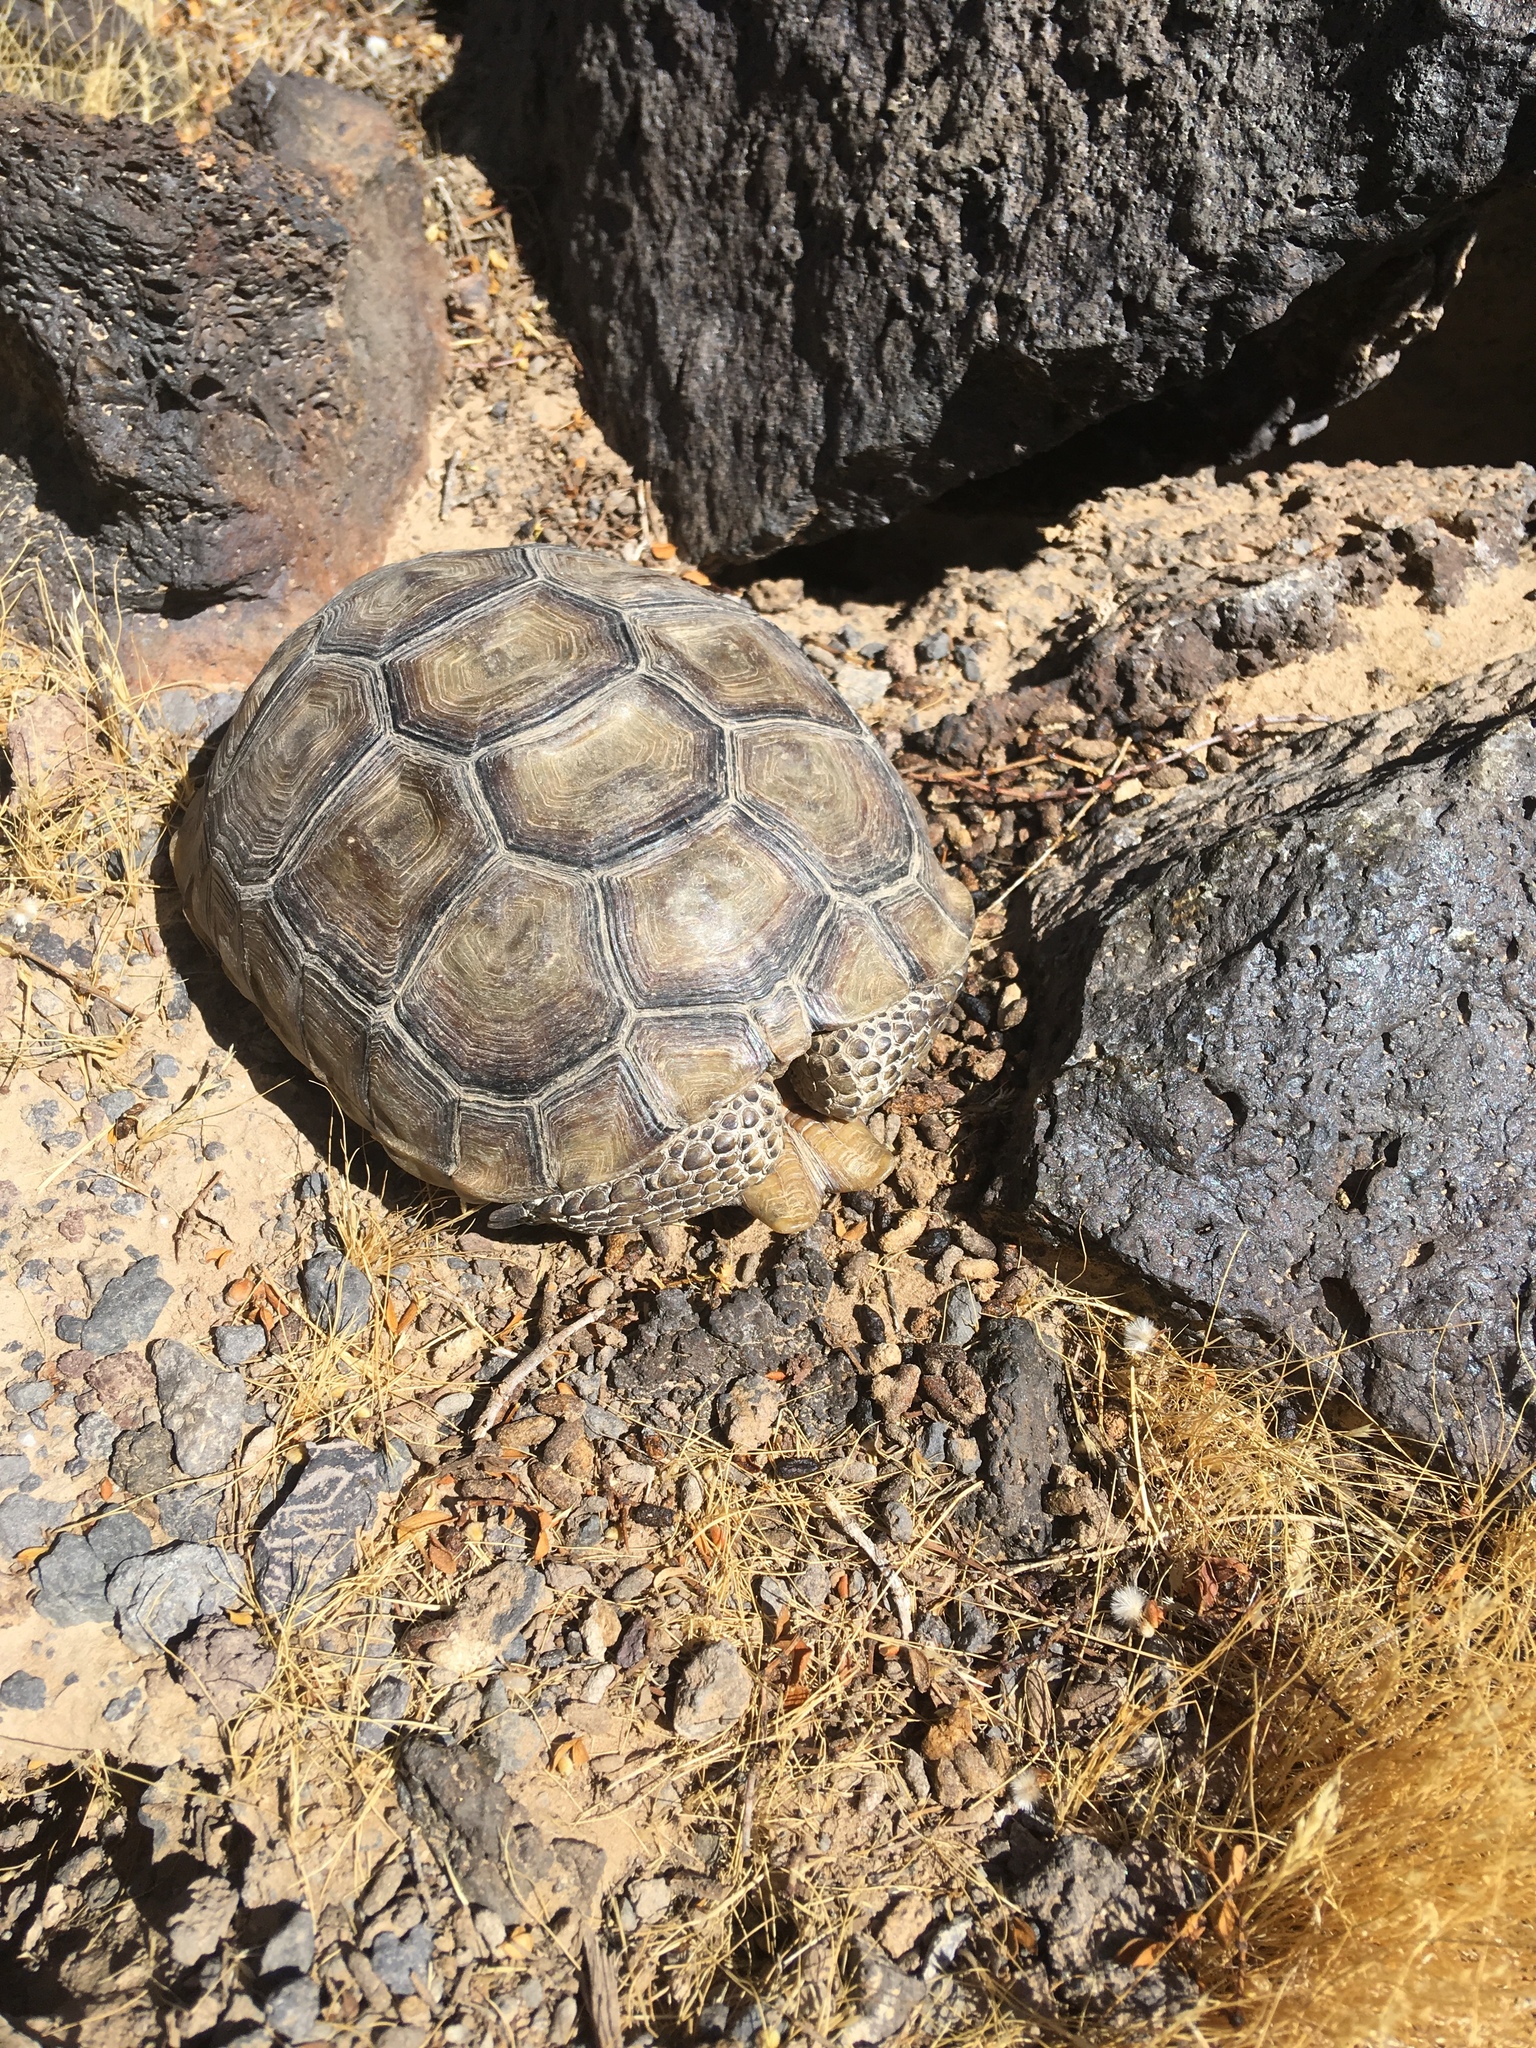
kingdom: Animalia
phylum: Chordata
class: Testudines
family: Testudinidae
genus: Gopherus
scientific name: Gopherus agassizii
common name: Mojave desert tortoise
